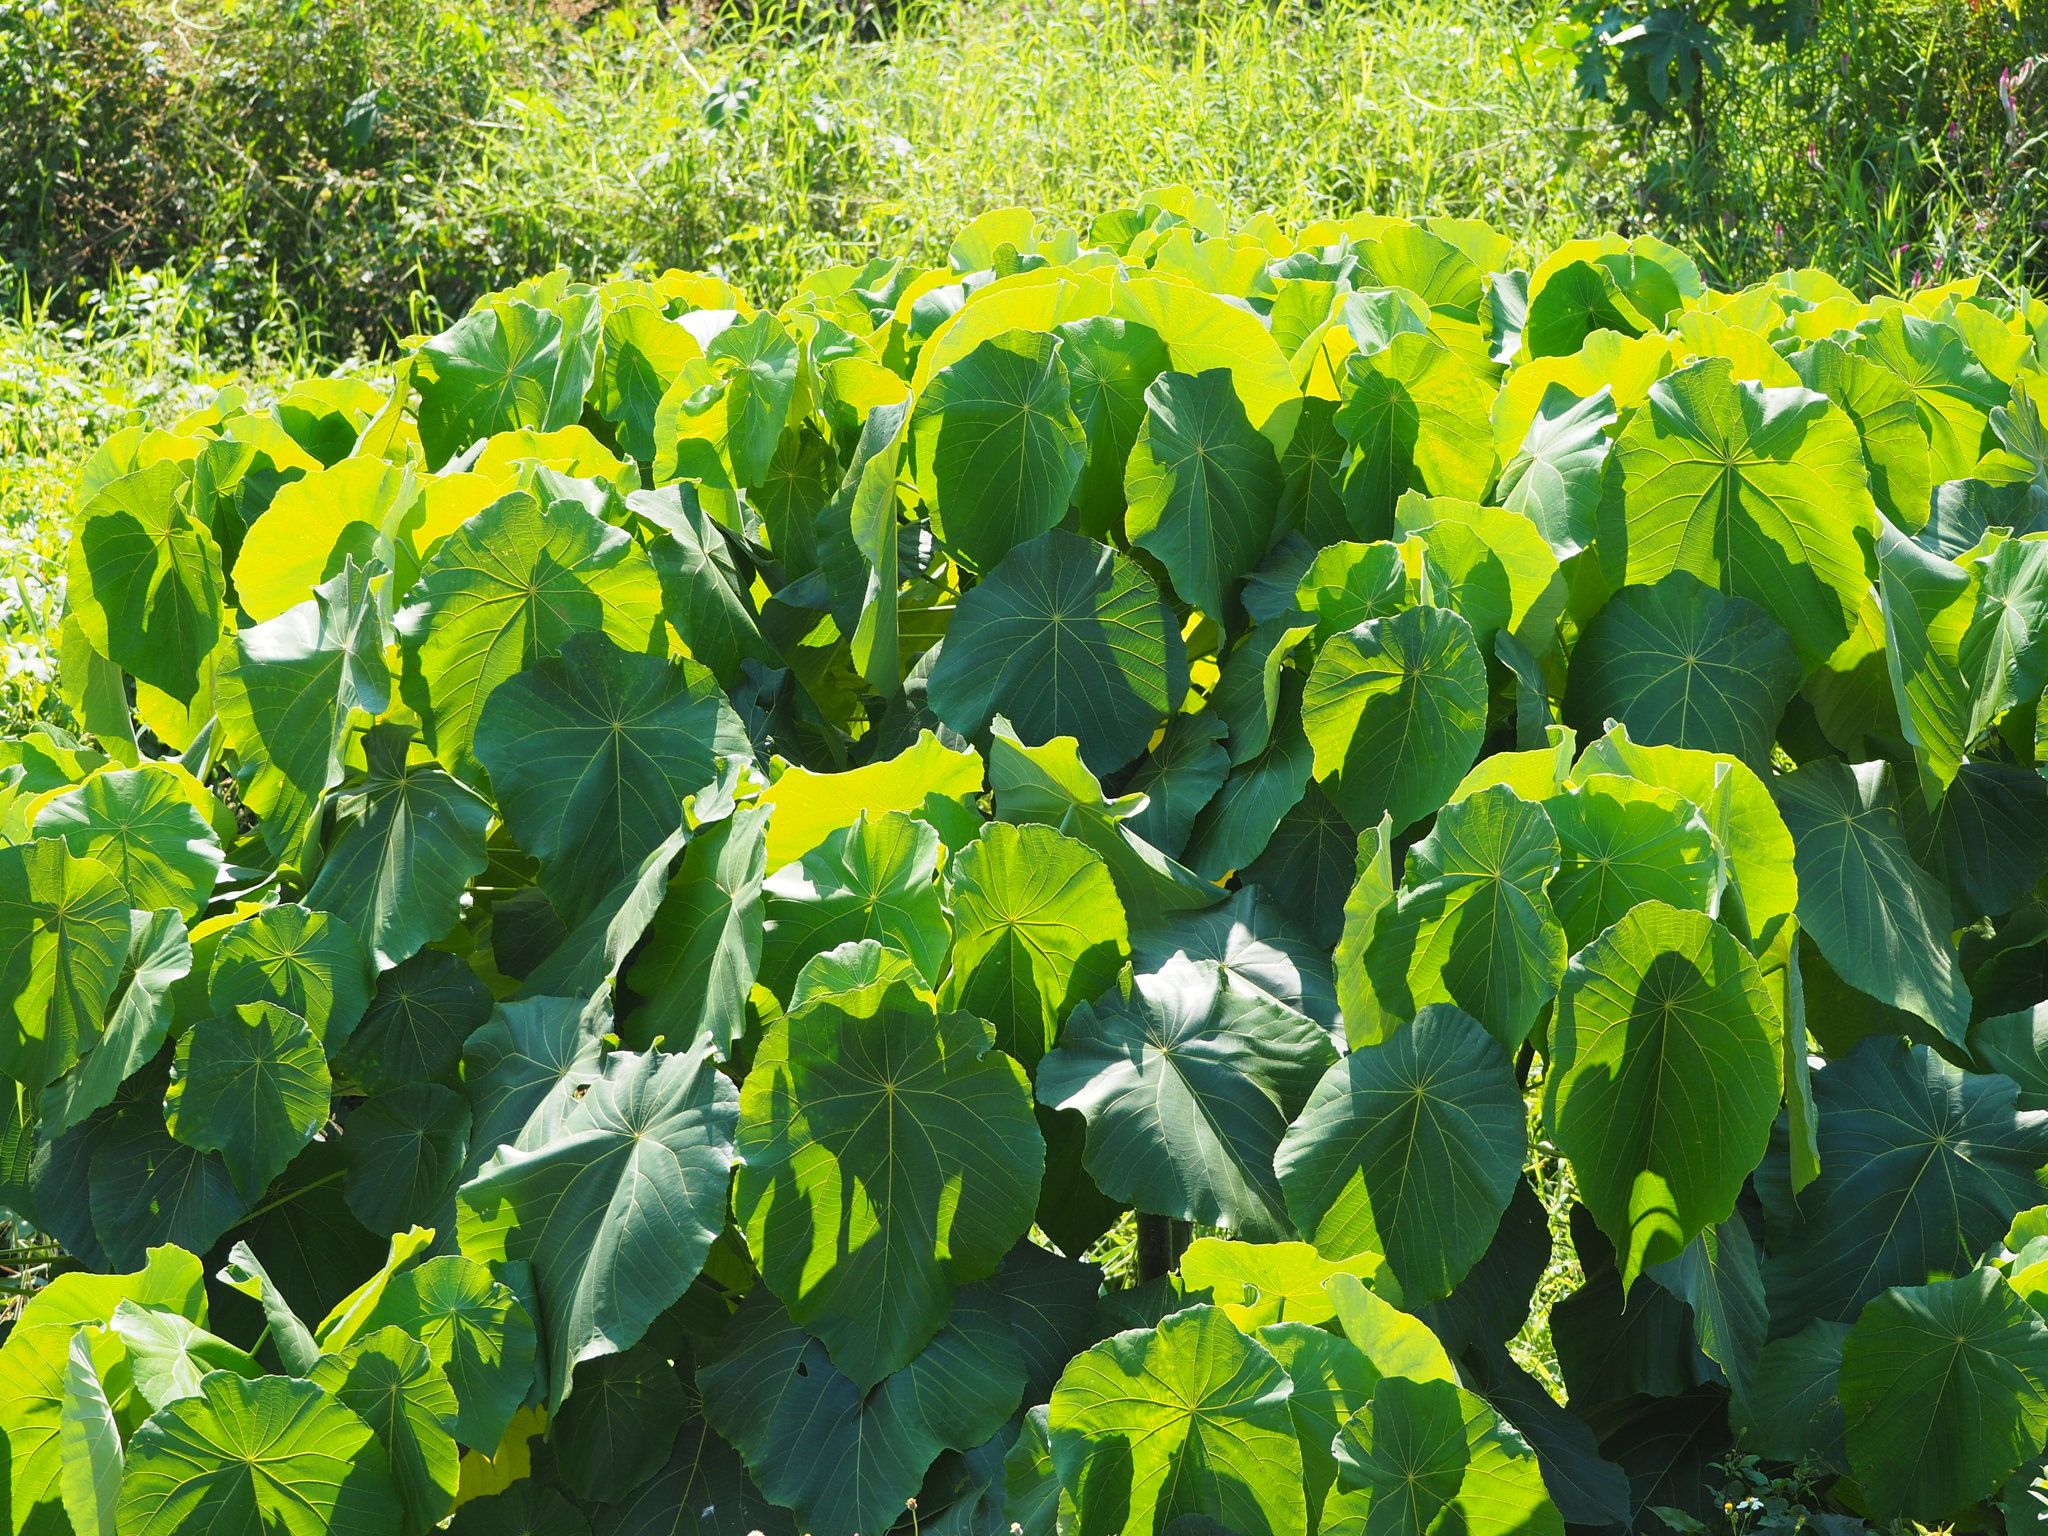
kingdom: Plantae
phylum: Tracheophyta
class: Magnoliopsida
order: Malpighiales
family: Euphorbiaceae
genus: Macaranga
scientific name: Macaranga tanarius
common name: Parasol leaf tree
